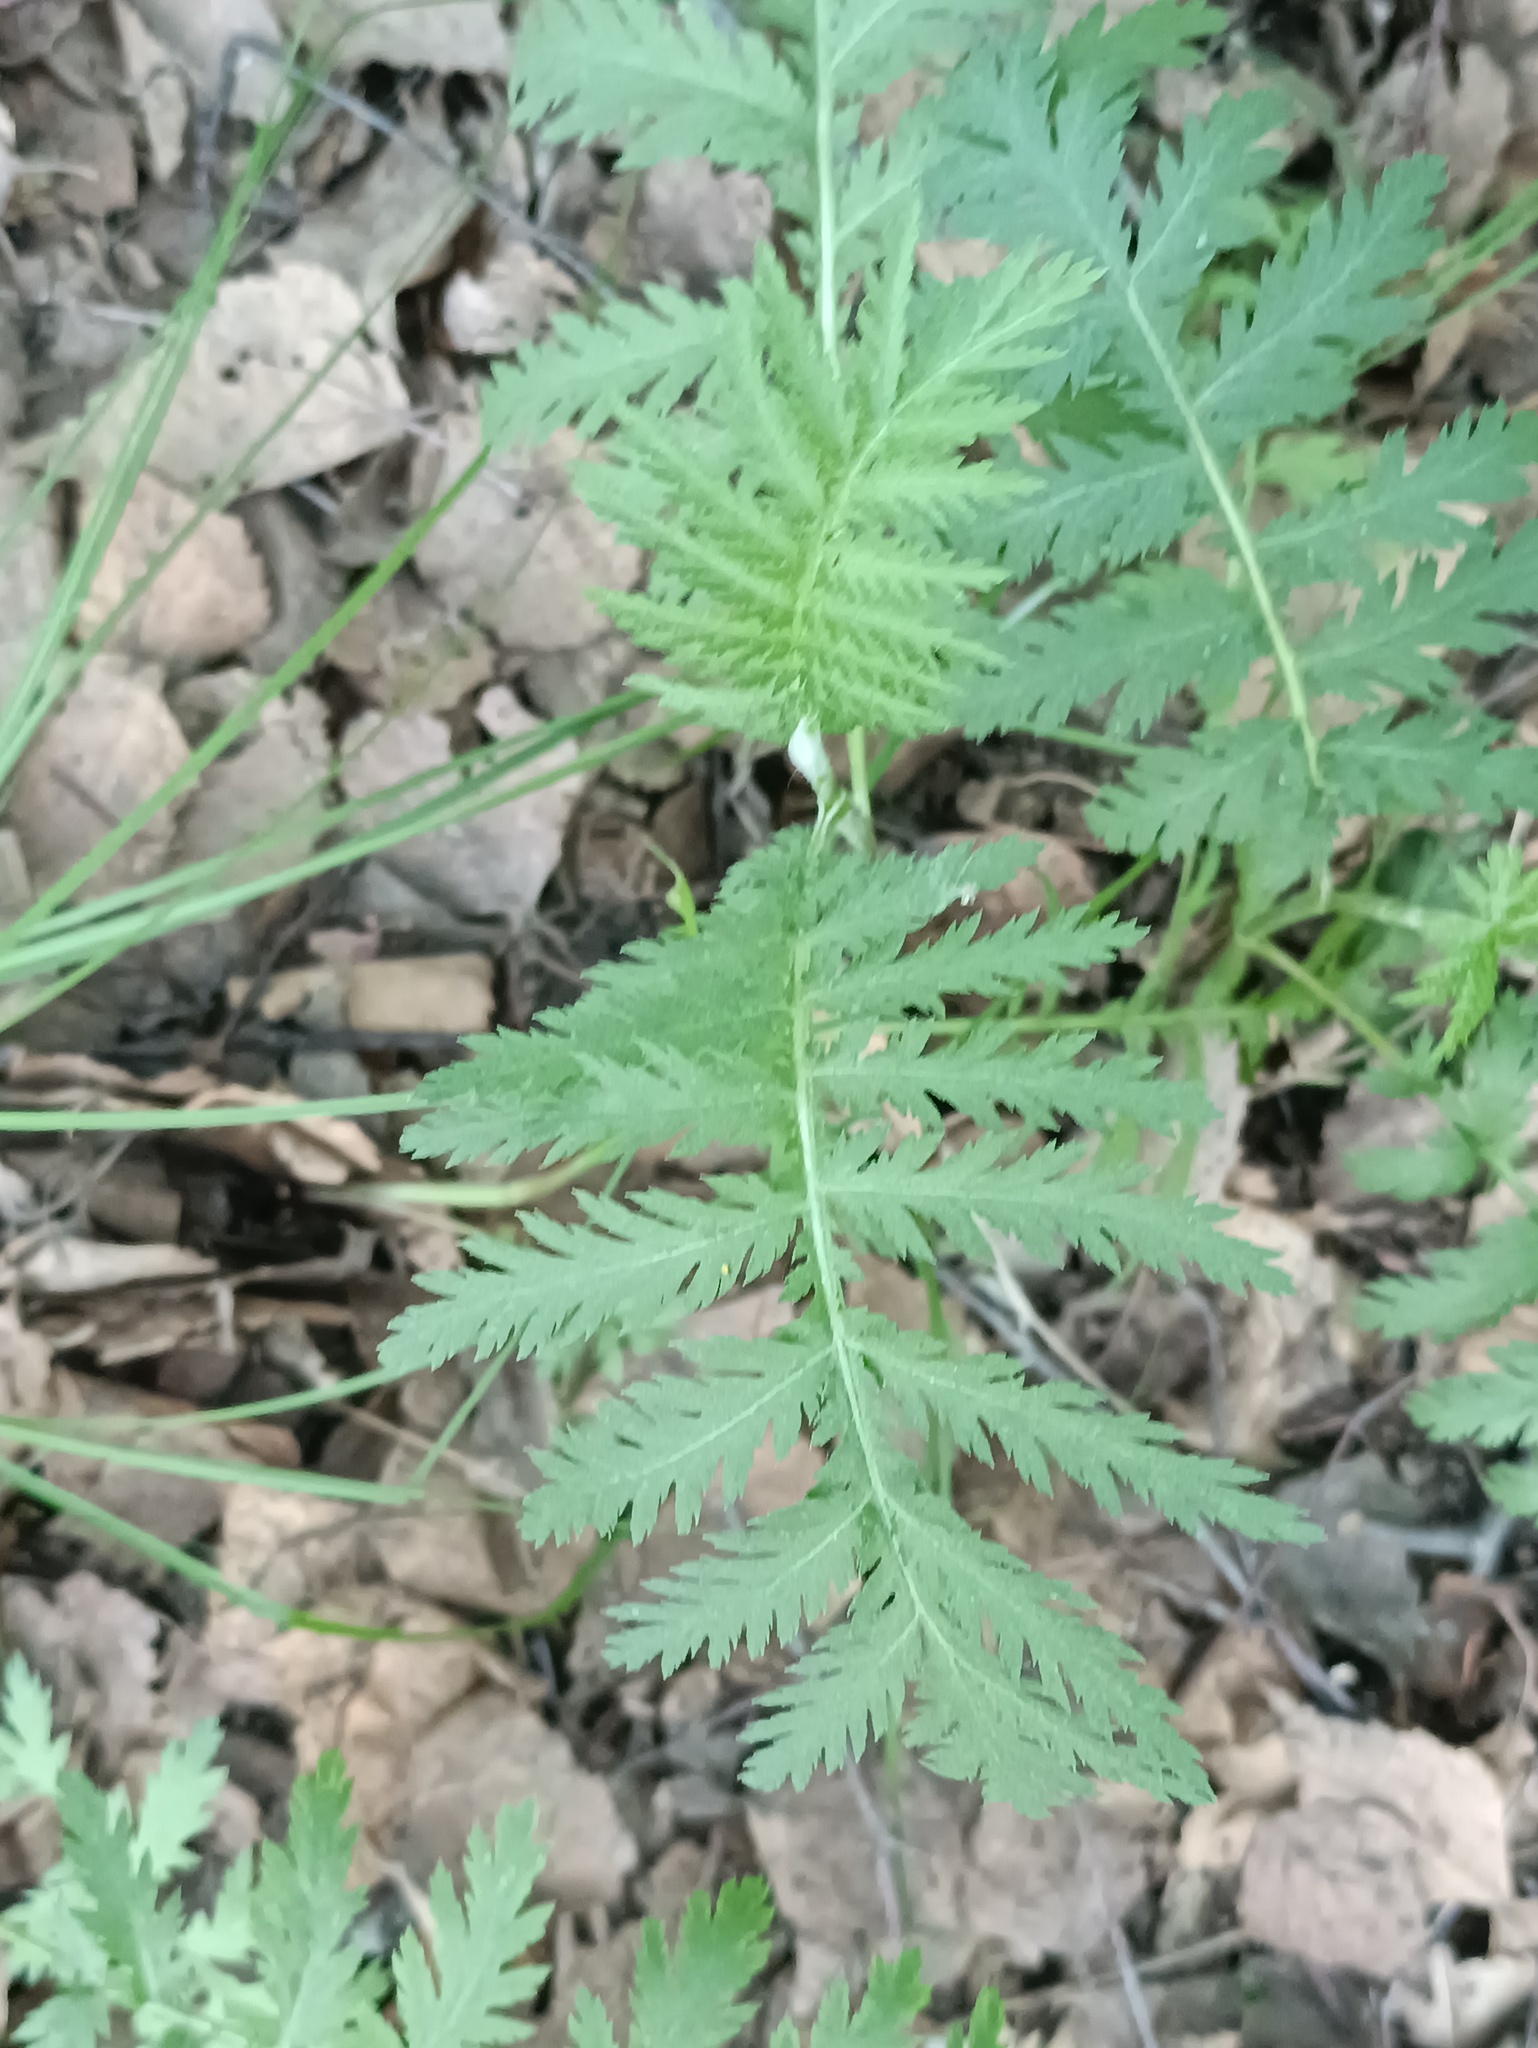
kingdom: Plantae
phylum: Tracheophyta
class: Magnoliopsida
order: Asterales
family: Asteraceae
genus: Tanacetum
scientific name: Tanacetum vulgare
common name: Common tansy
